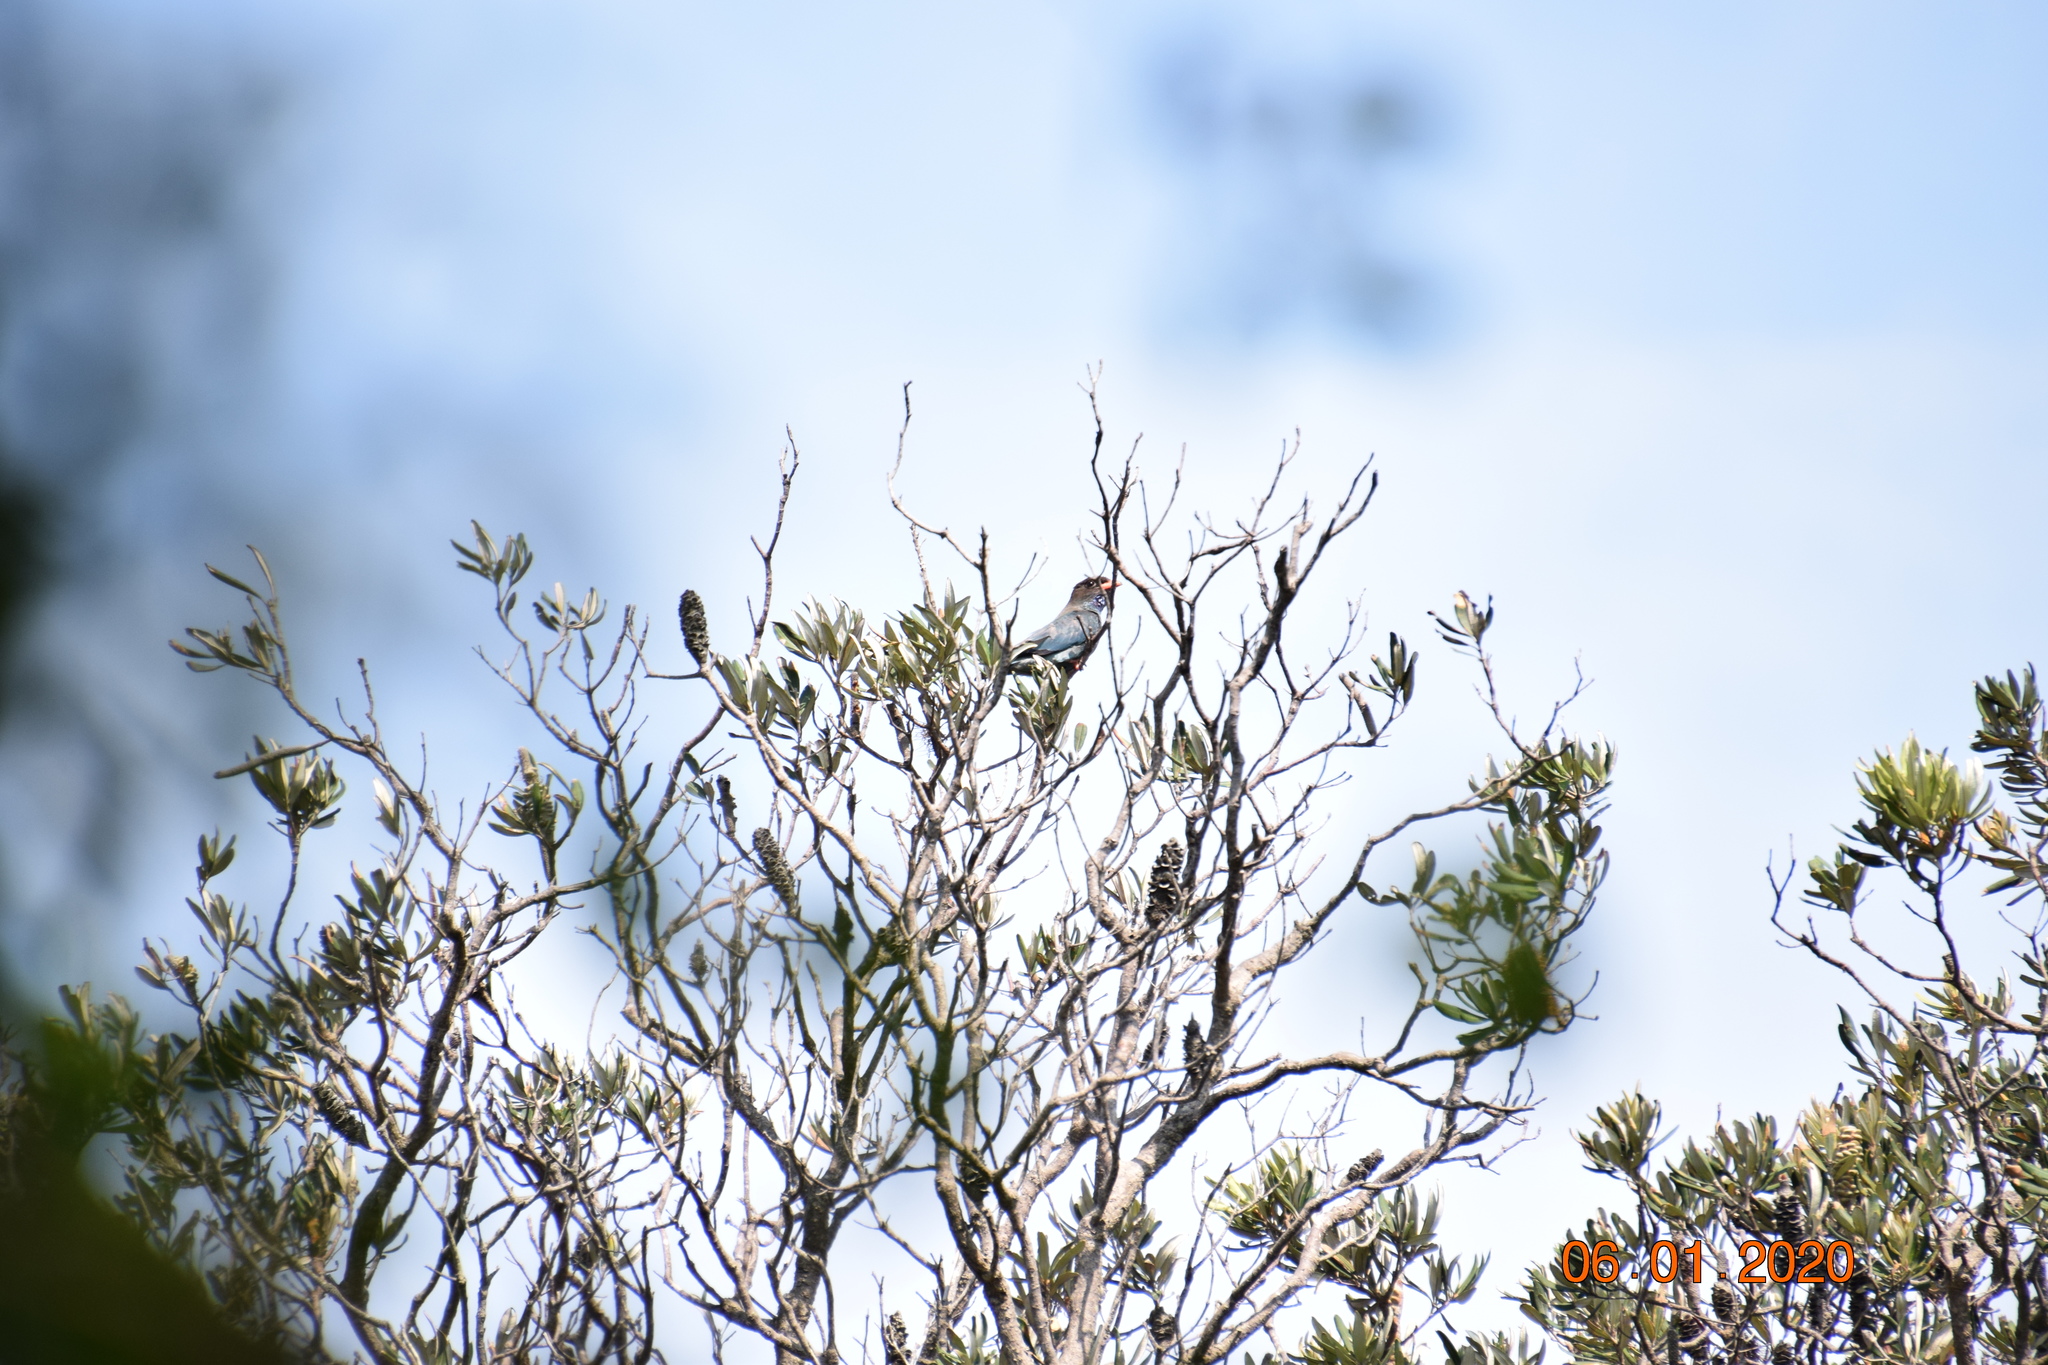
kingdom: Animalia
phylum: Chordata
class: Aves
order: Coraciiformes
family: Coraciidae
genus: Eurystomus
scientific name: Eurystomus orientalis
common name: Oriental dollarbird
